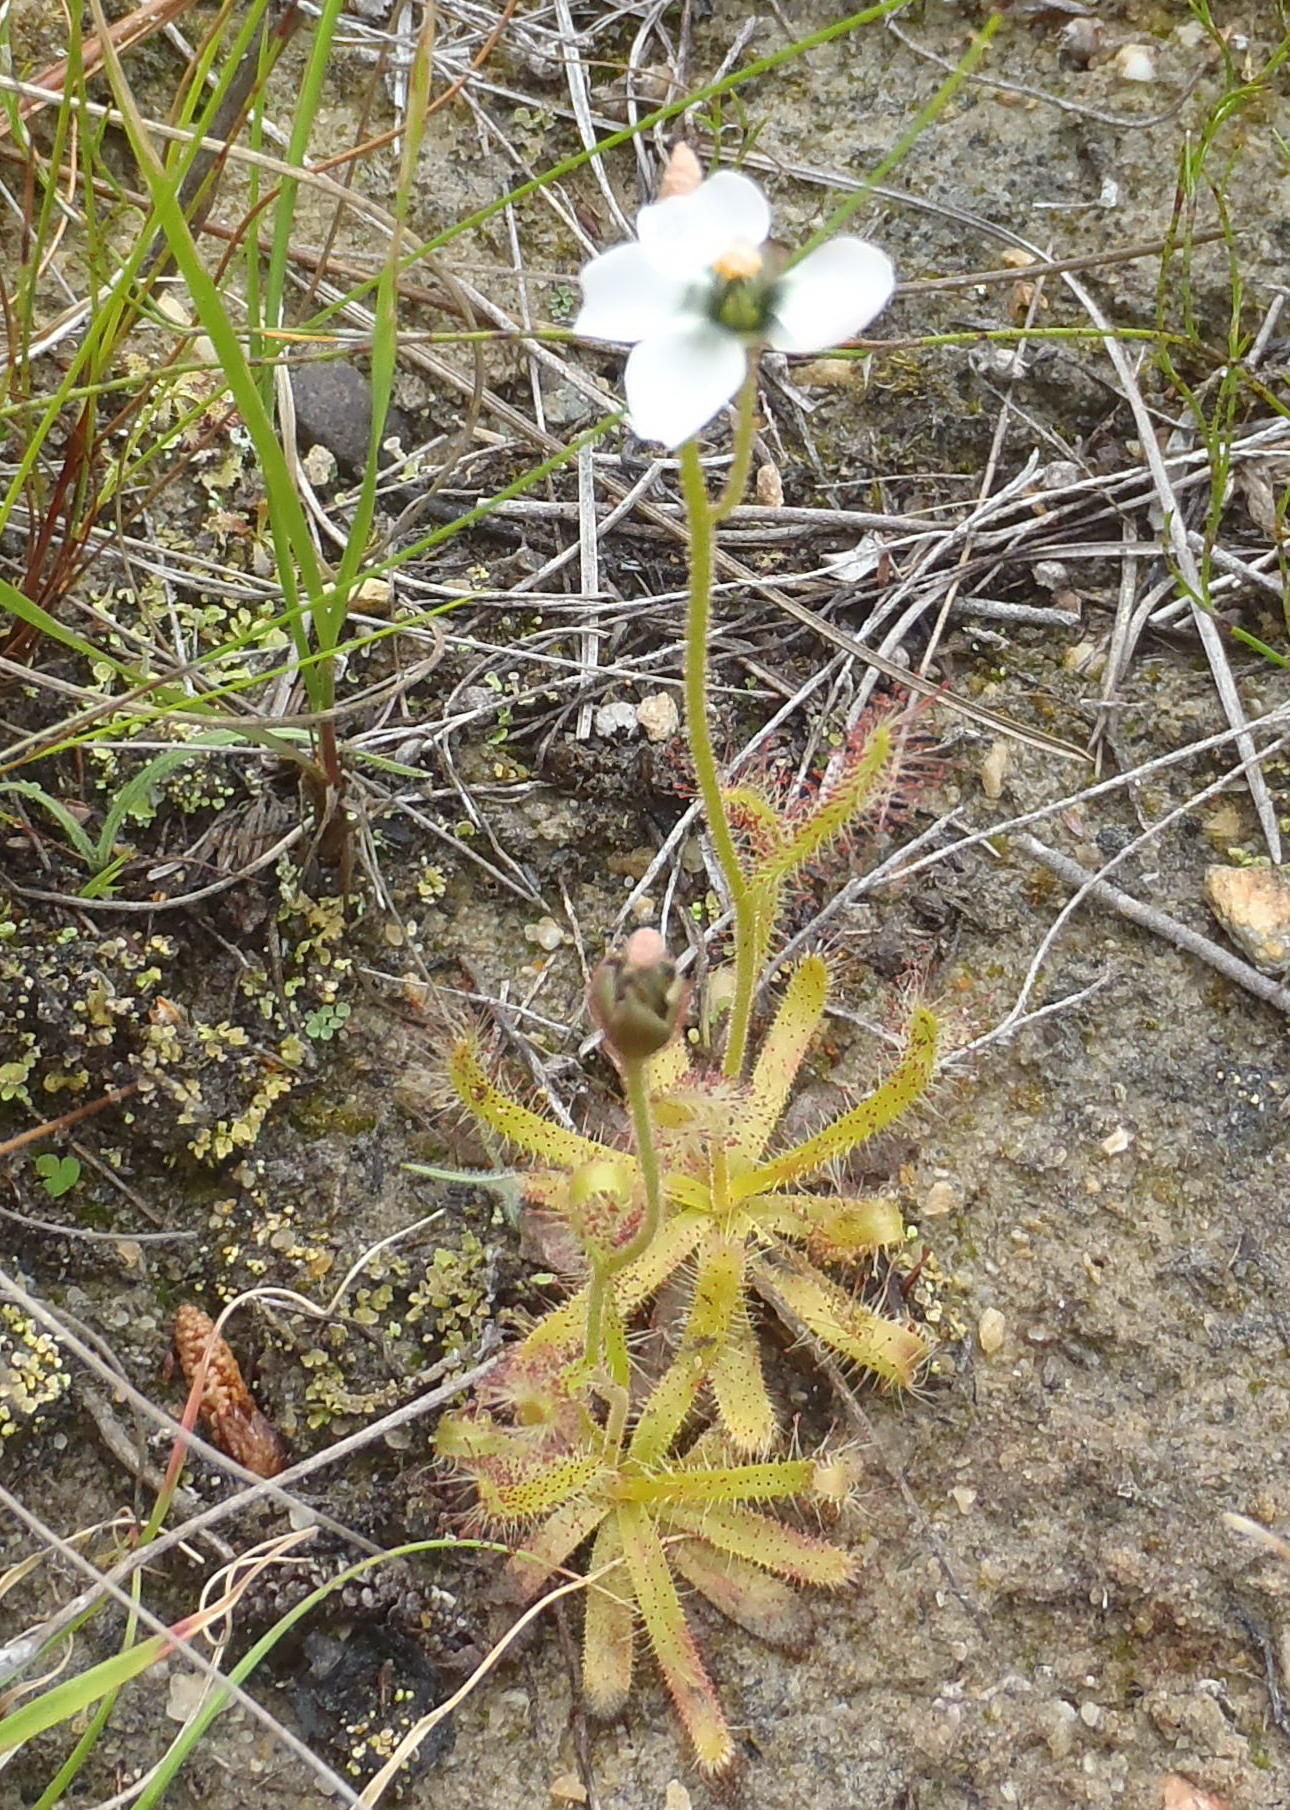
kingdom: Plantae
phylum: Tracheophyta
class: Magnoliopsida
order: Caryophyllales
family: Droseraceae
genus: Drosera
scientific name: Drosera cistiflora
